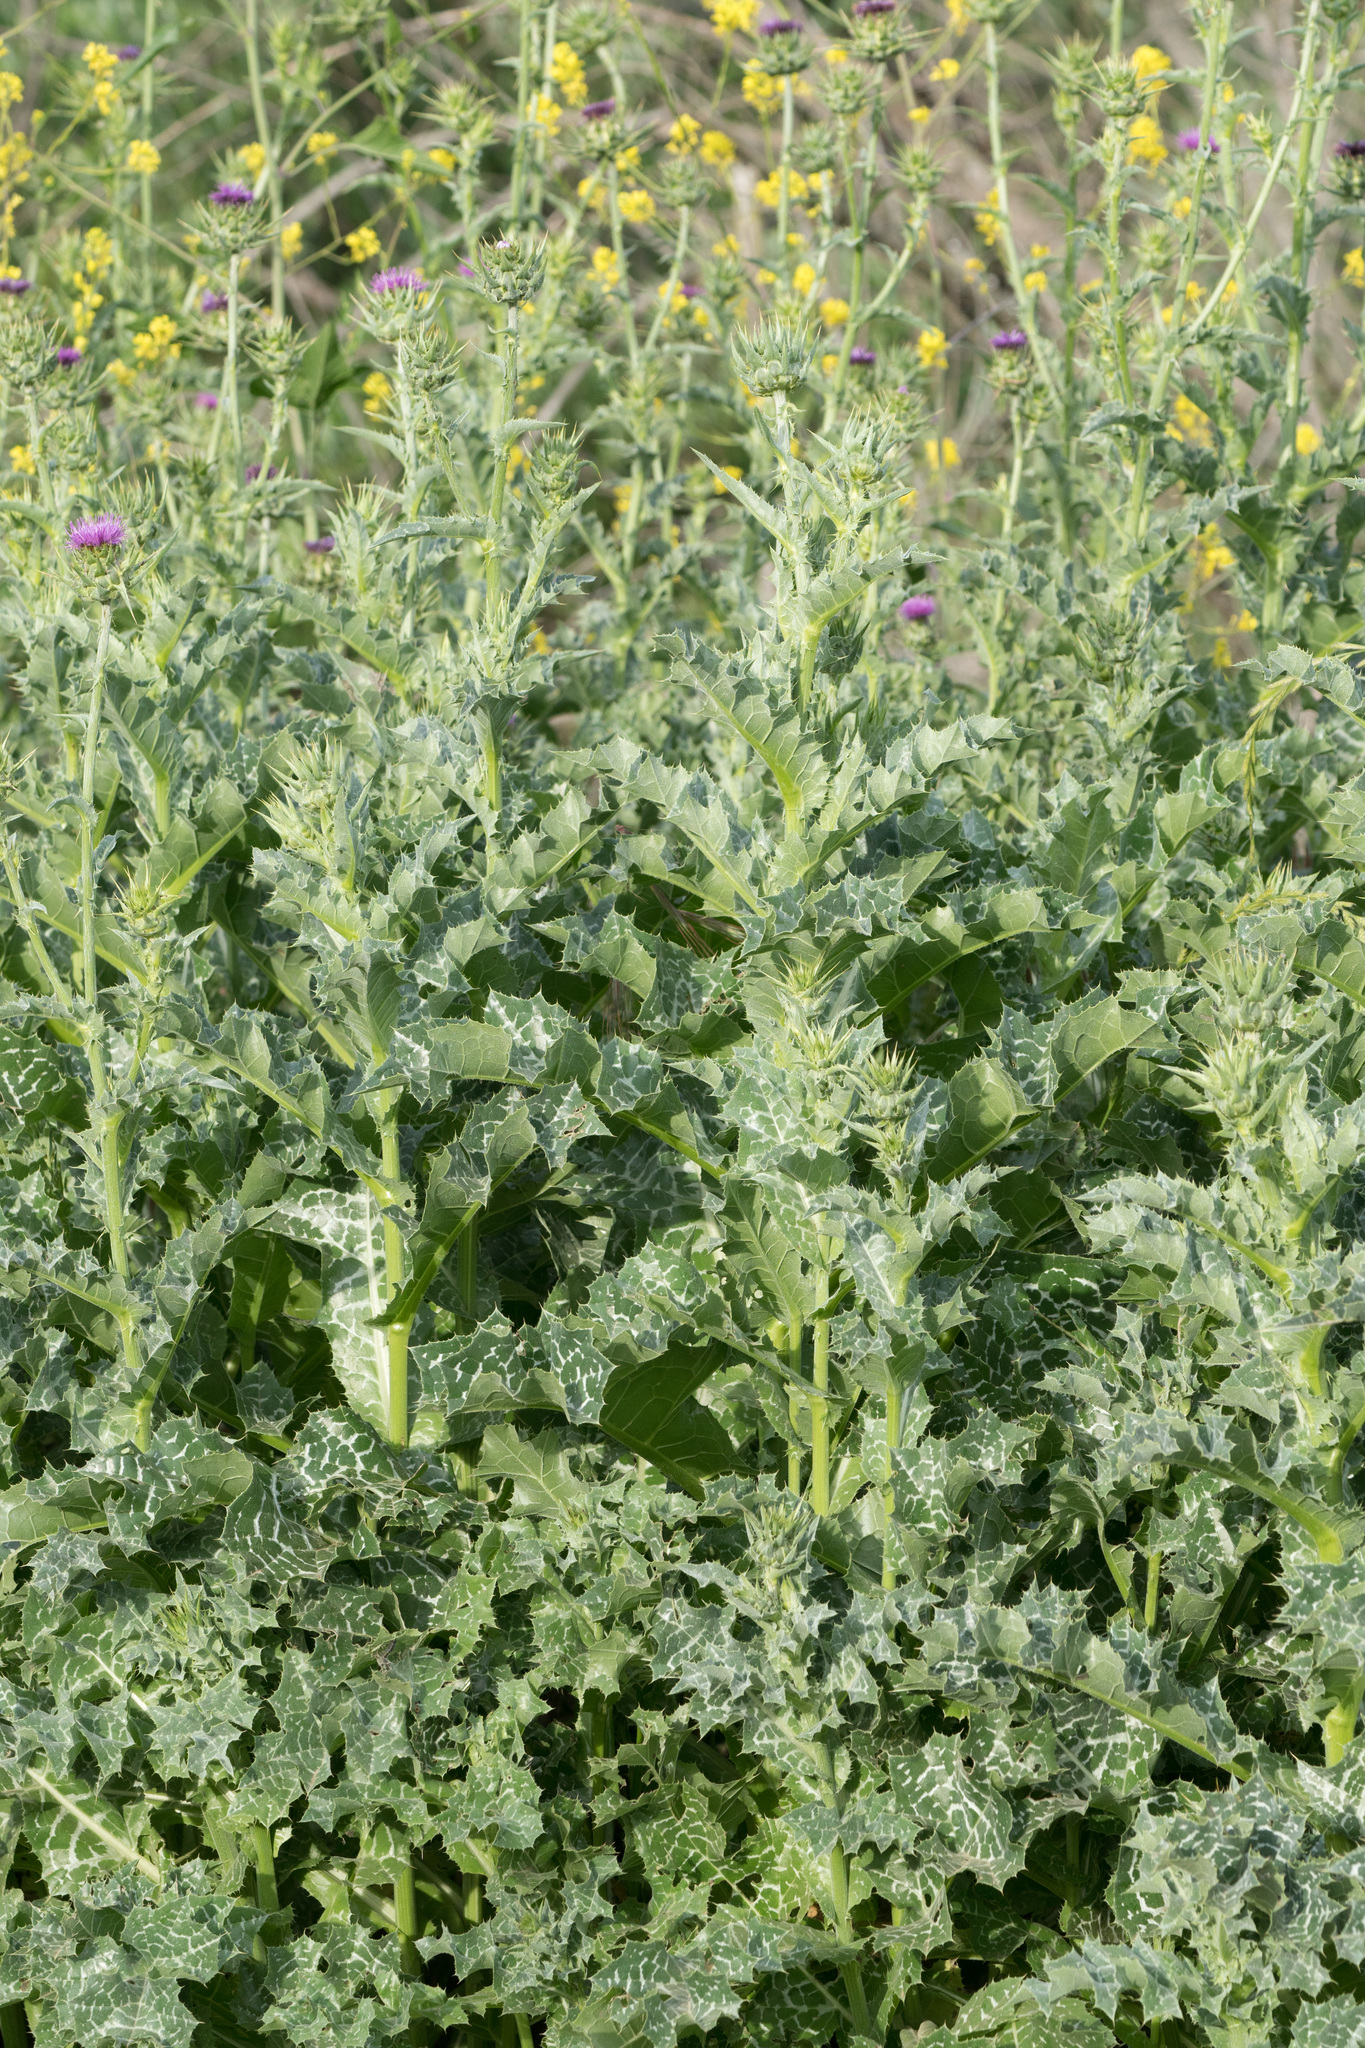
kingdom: Plantae
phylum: Tracheophyta
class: Magnoliopsida
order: Asterales
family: Asteraceae
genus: Silybum
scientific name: Silybum marianum
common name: Milk thistle
